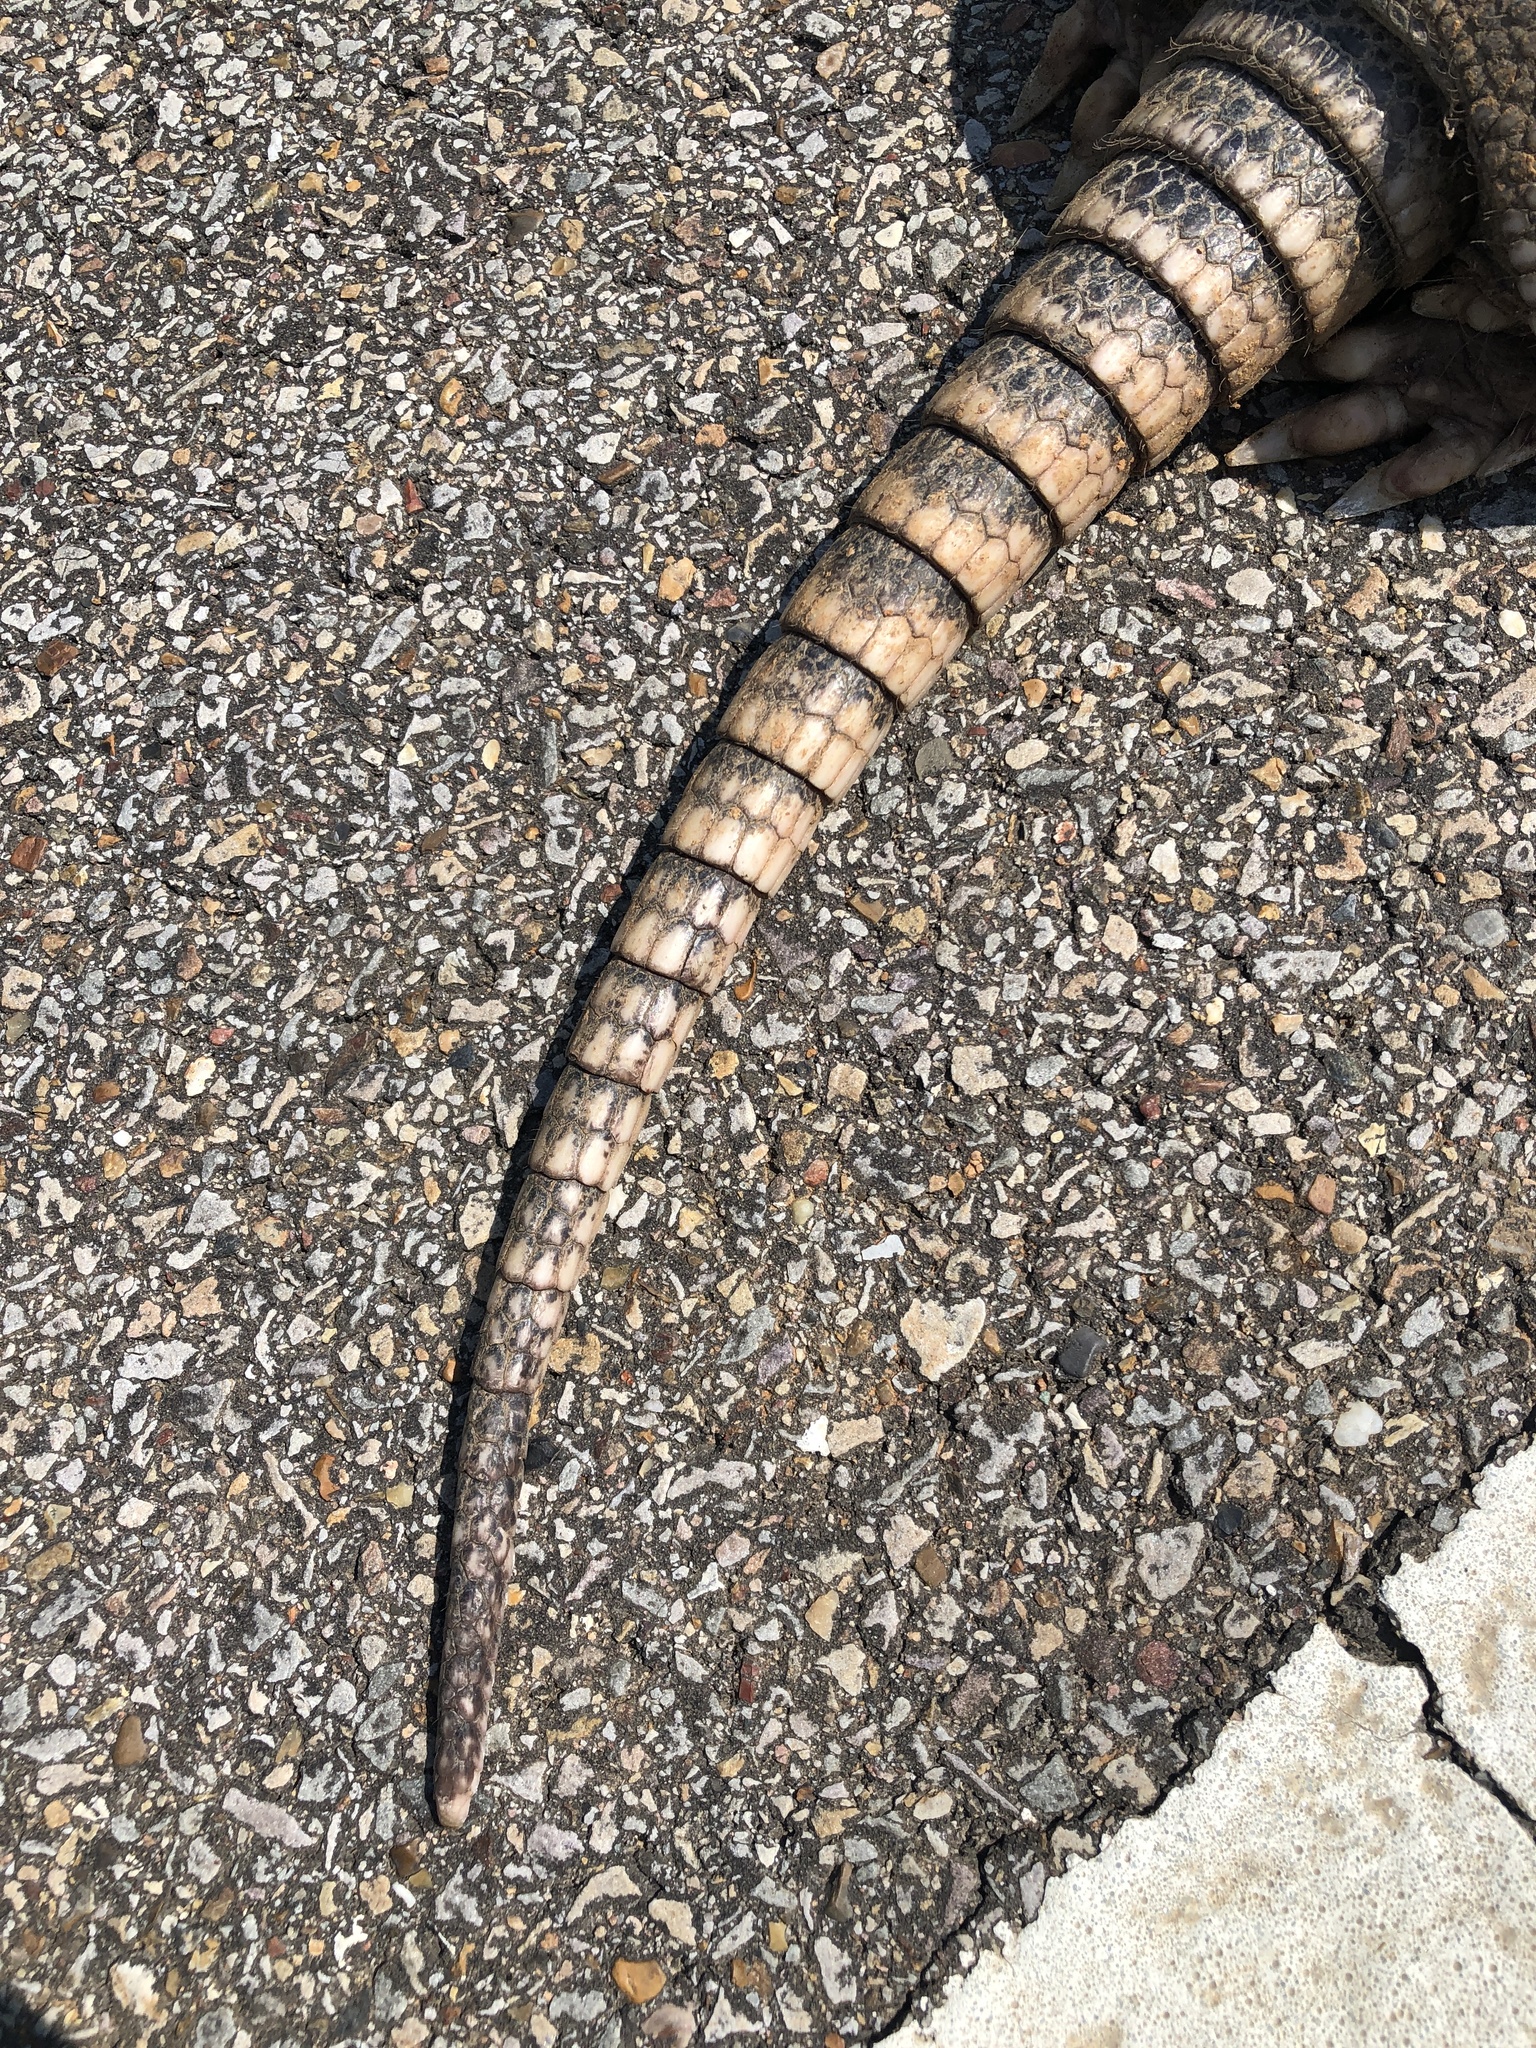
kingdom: Animalia
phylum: Chordata
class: Mammalia
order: Cingulata
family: Dasypodidae
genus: Dasypus
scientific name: Dasypus novemcinctus
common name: Nine-banded armadillo
